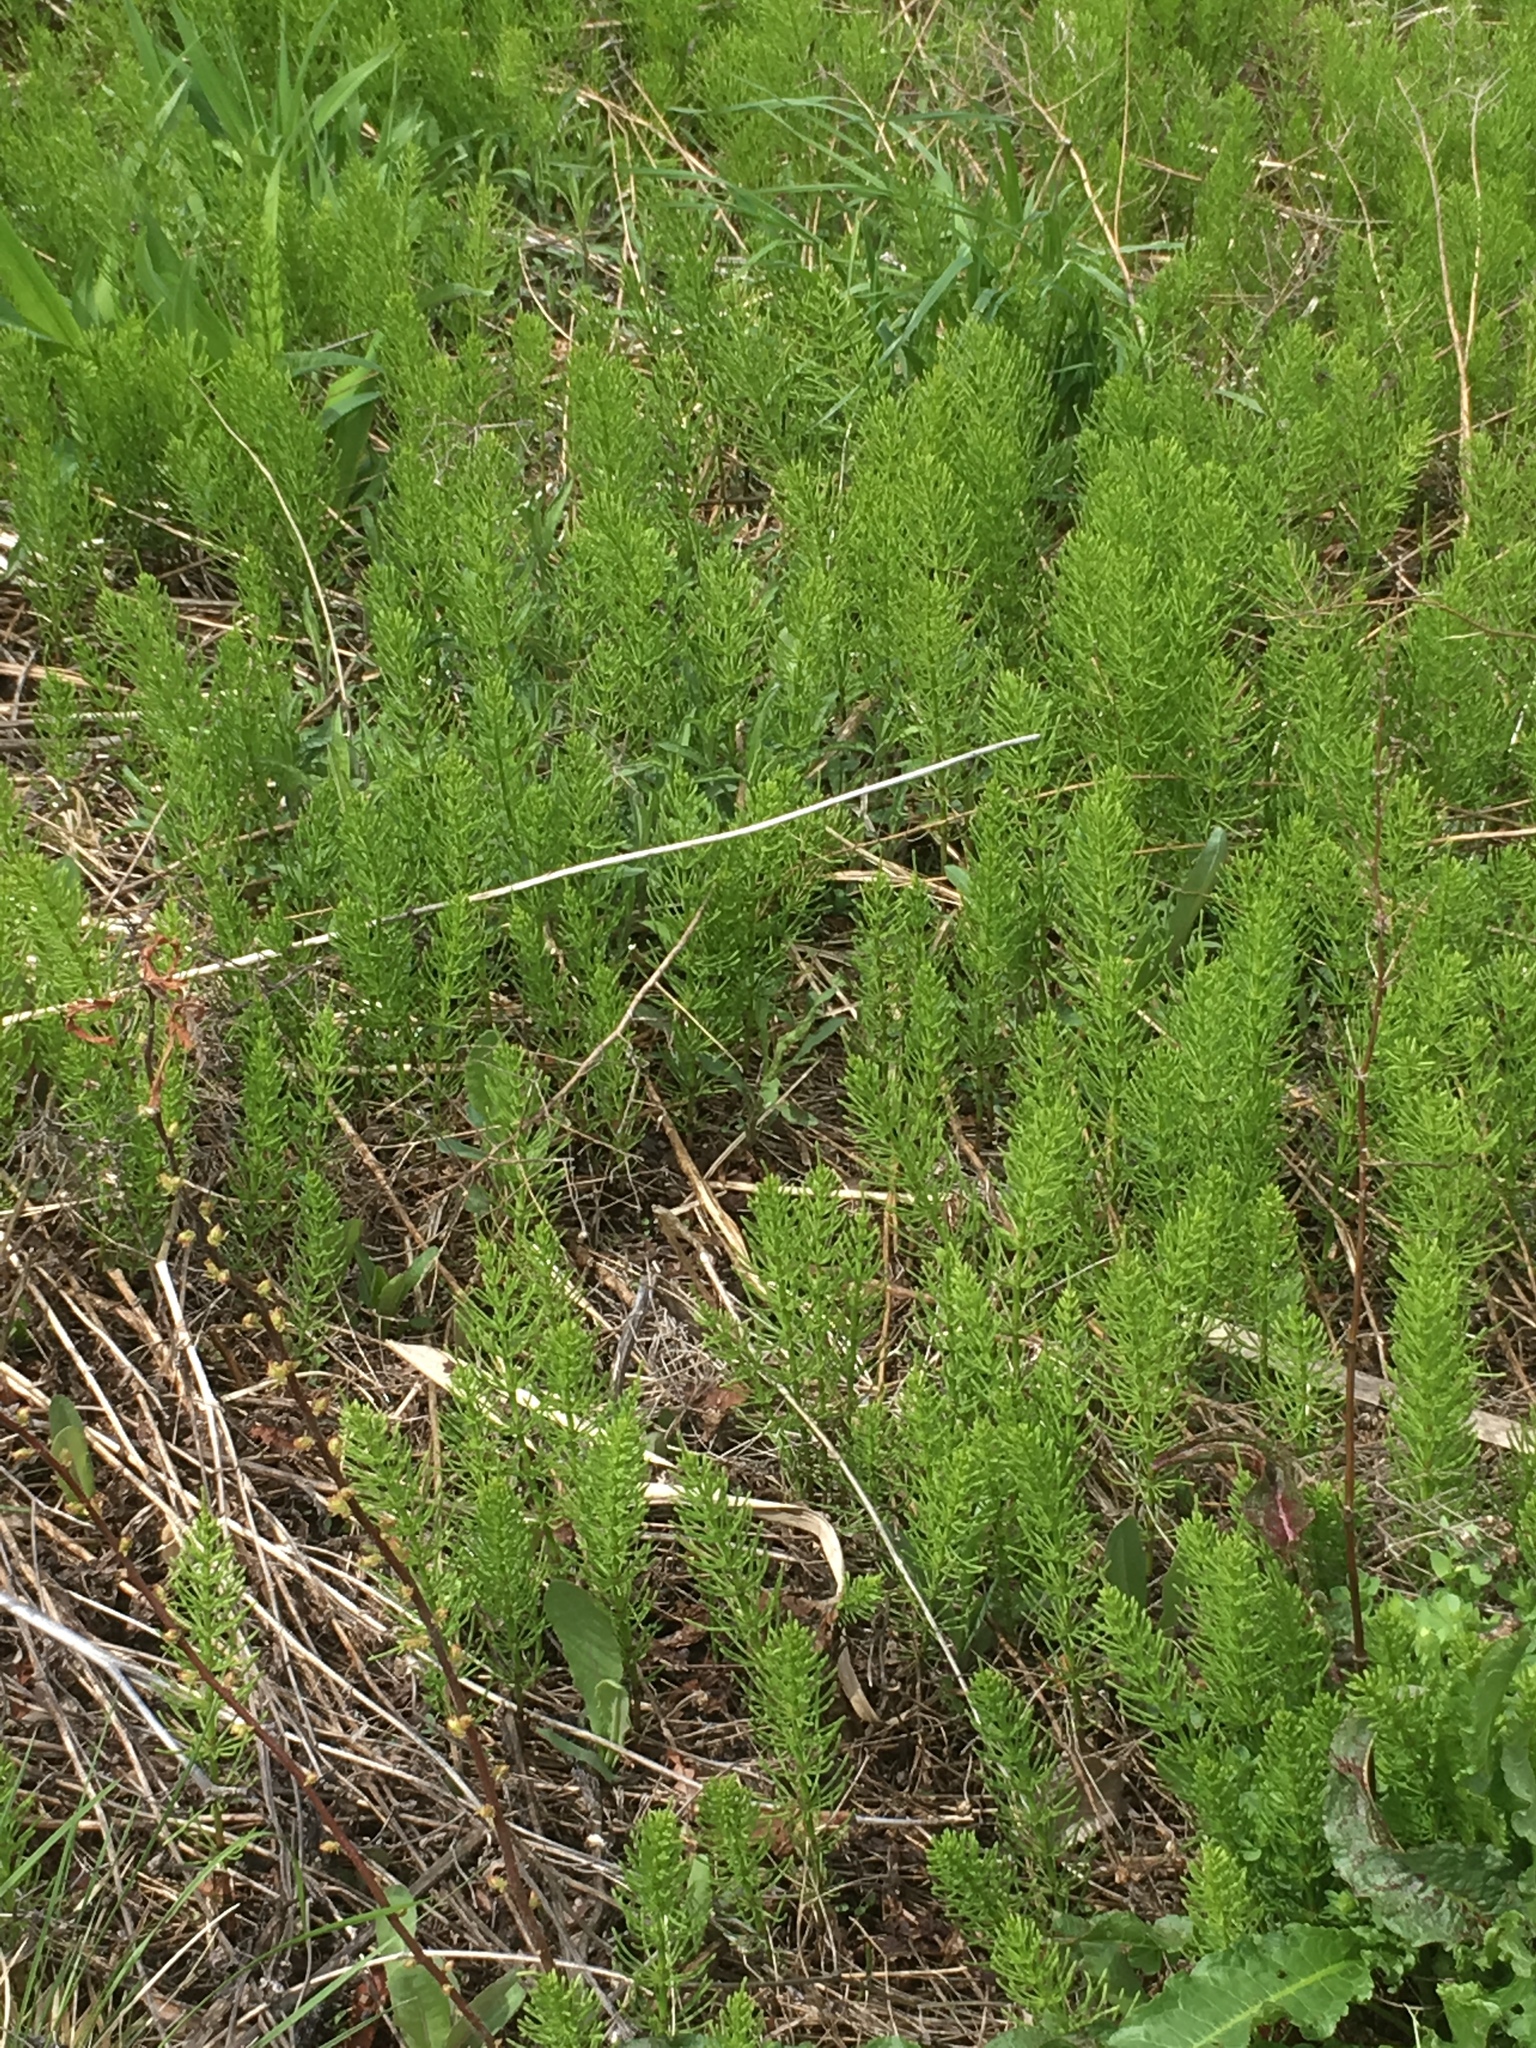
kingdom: Plantae
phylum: Tracheophyta
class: Polypodiopsida
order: Equisetales
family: Equisetaceae
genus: Equisetum
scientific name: Equisetum arvense
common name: Field horsetail
